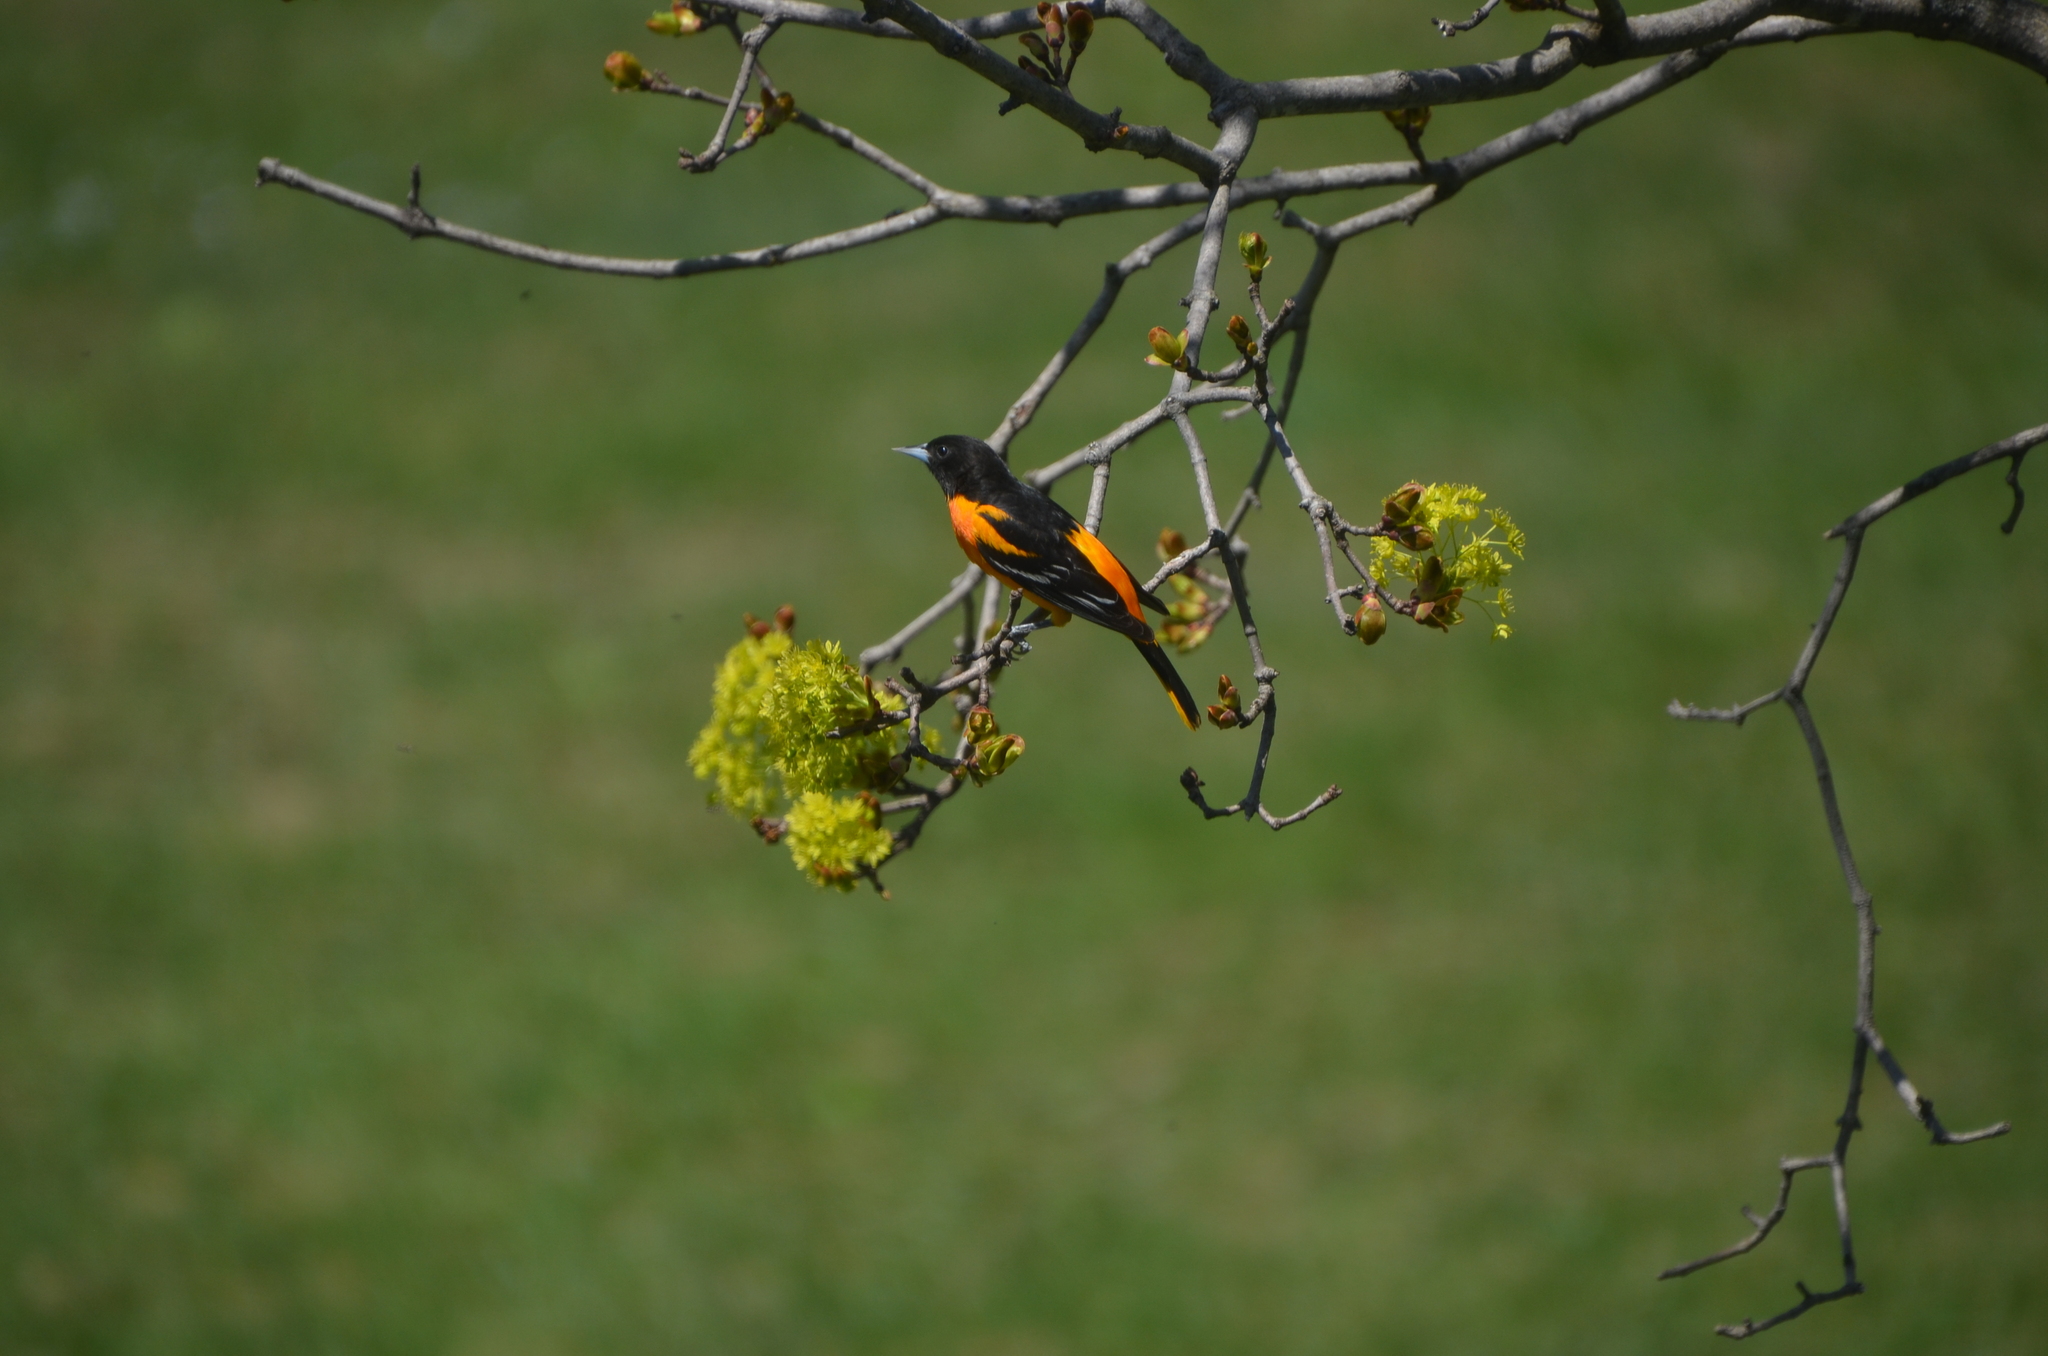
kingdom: Animalia
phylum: Chordata
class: Aves
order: Passeriformes
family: Icteridae
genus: Icterus
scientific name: Icterus galbula
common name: Baltimore oriole
